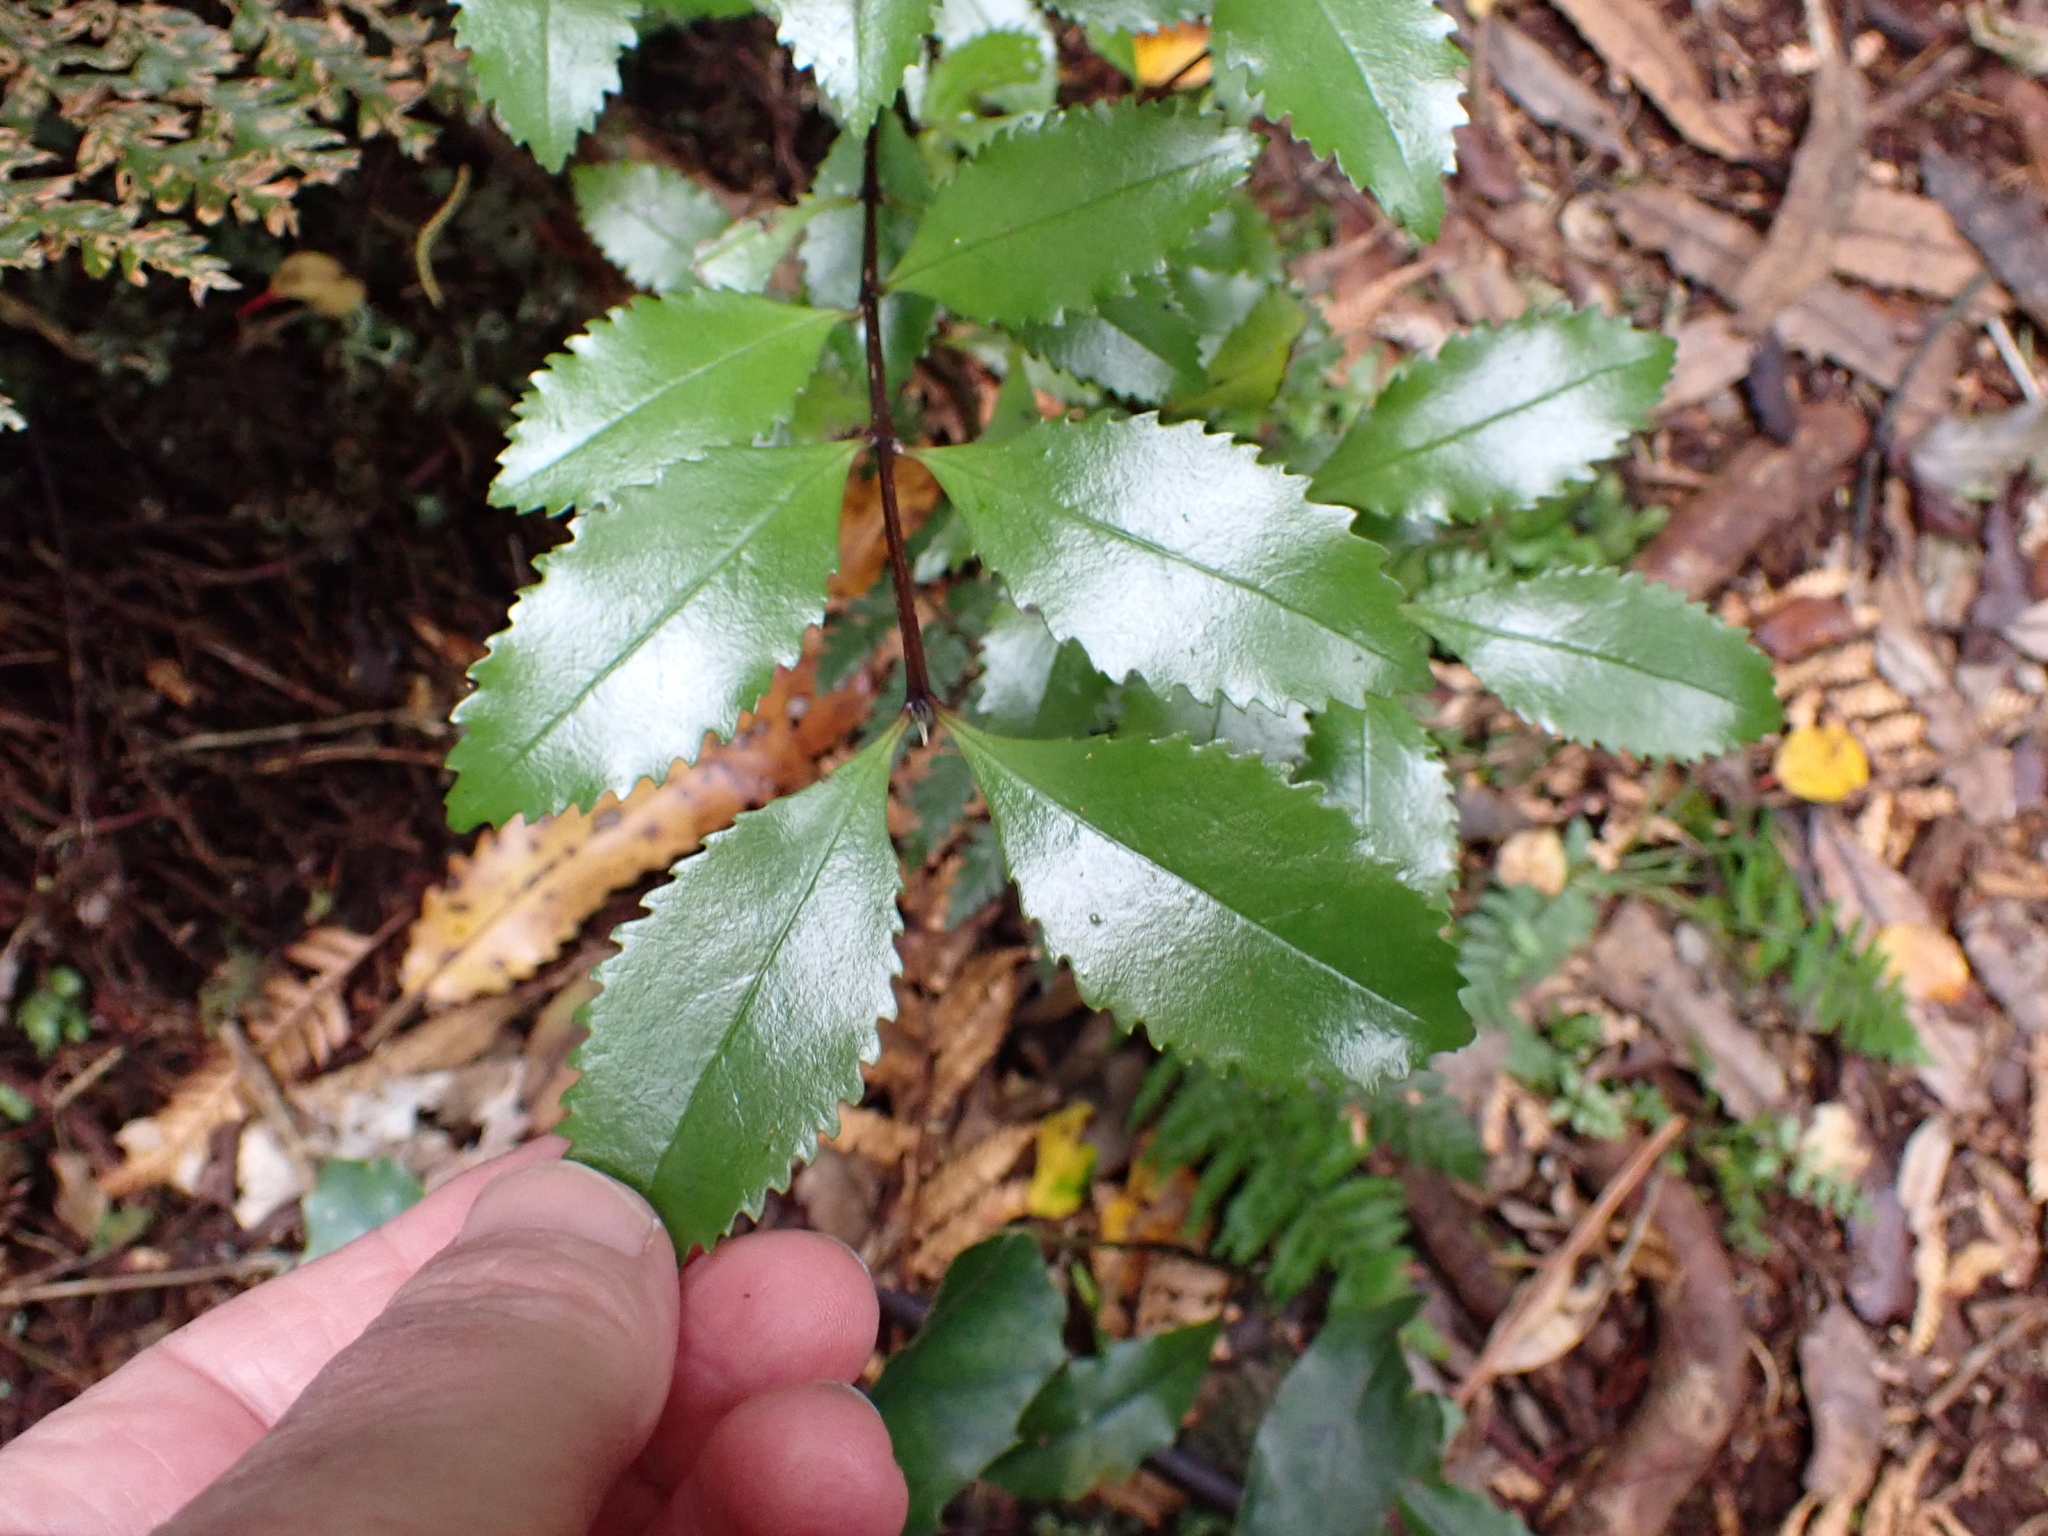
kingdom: Plantae
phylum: Tracheophyta
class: Magnoliopsida
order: Laurales
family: Atherospermataceae
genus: Laurelia
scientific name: Laurelia novae-zelandiae
